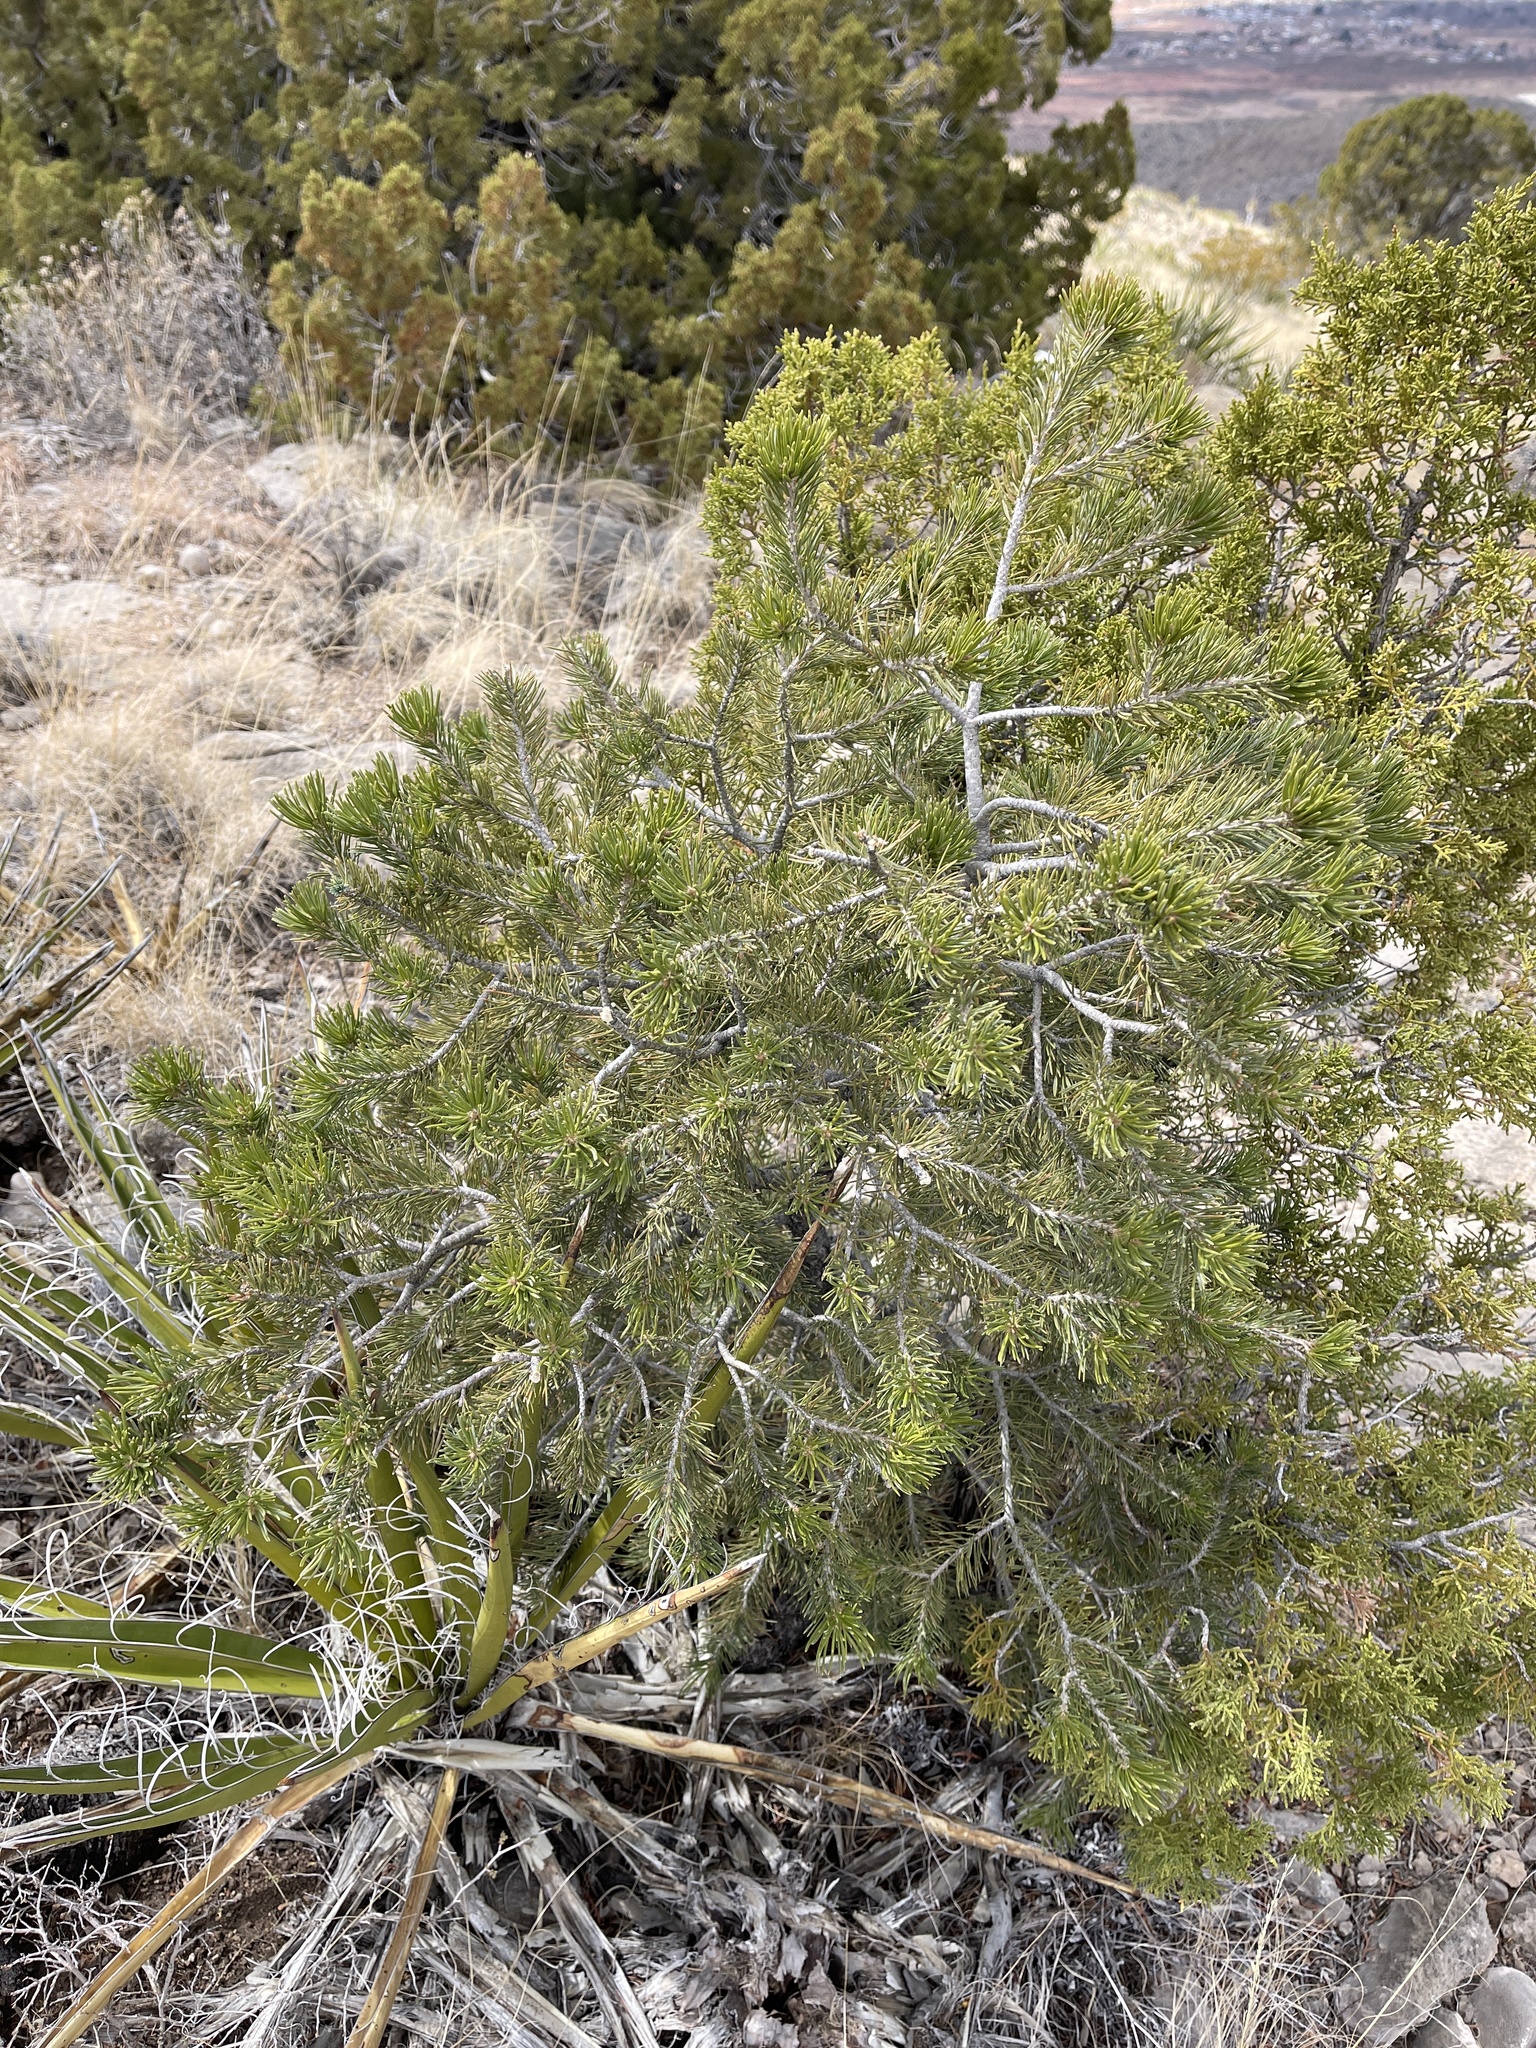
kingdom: Plantae
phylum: Tracheophyta
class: Pinopsida
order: Pinales
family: Pinaceae
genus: Pinus
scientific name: Pinus edulis
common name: Colorado pinyon
